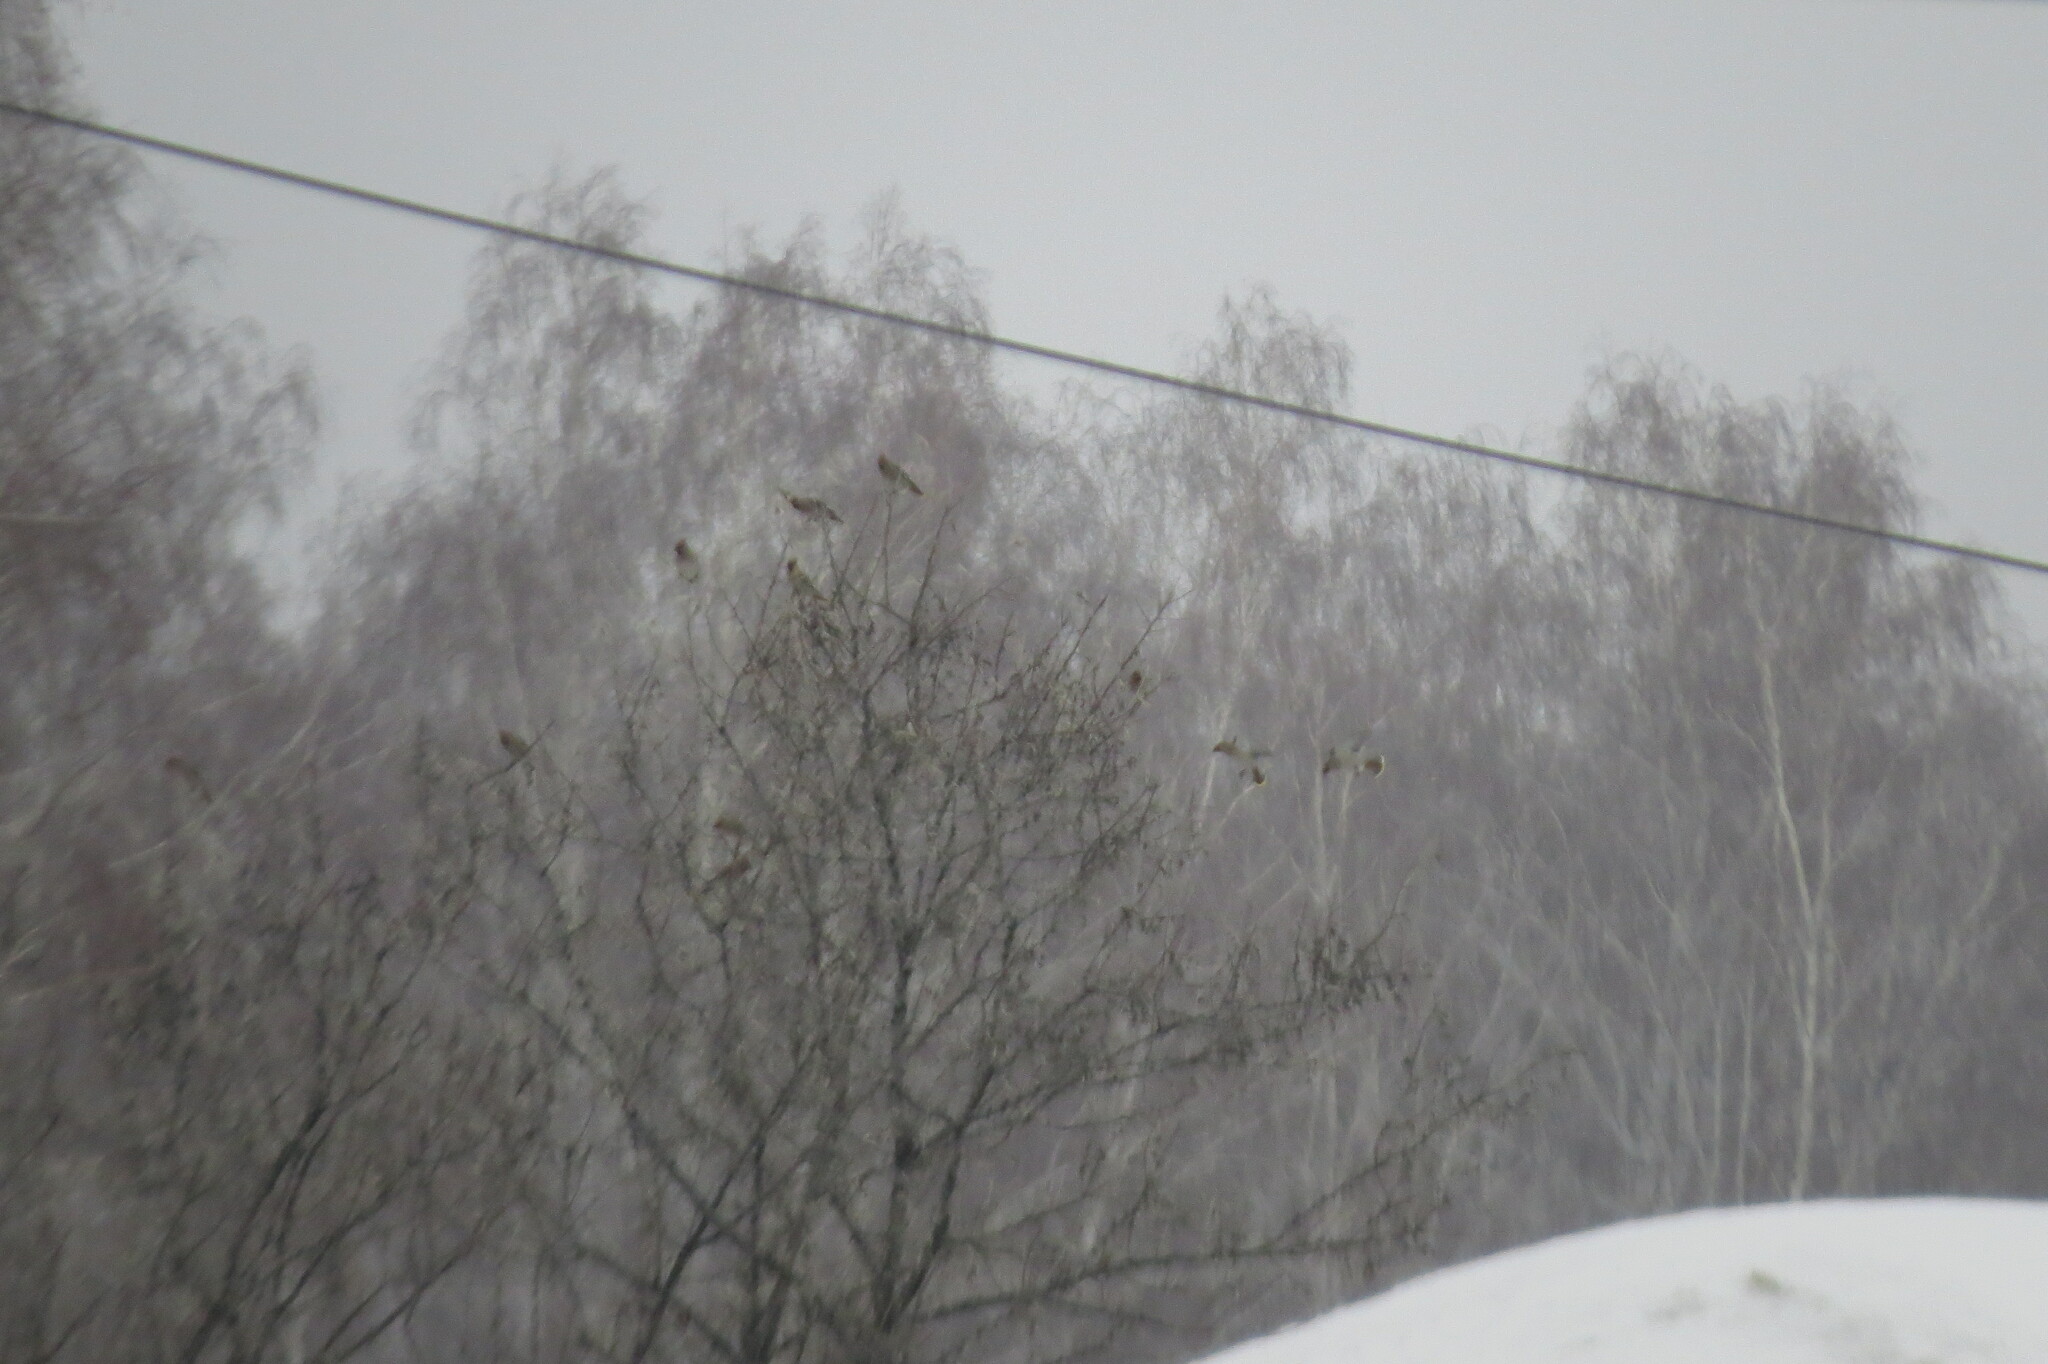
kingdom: Animalia
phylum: Chordata
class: Aves
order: Passeriformes
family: Bombycillidae
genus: Bombycilla
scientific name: Bombycilla garrulus
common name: Bohemian waxwing
